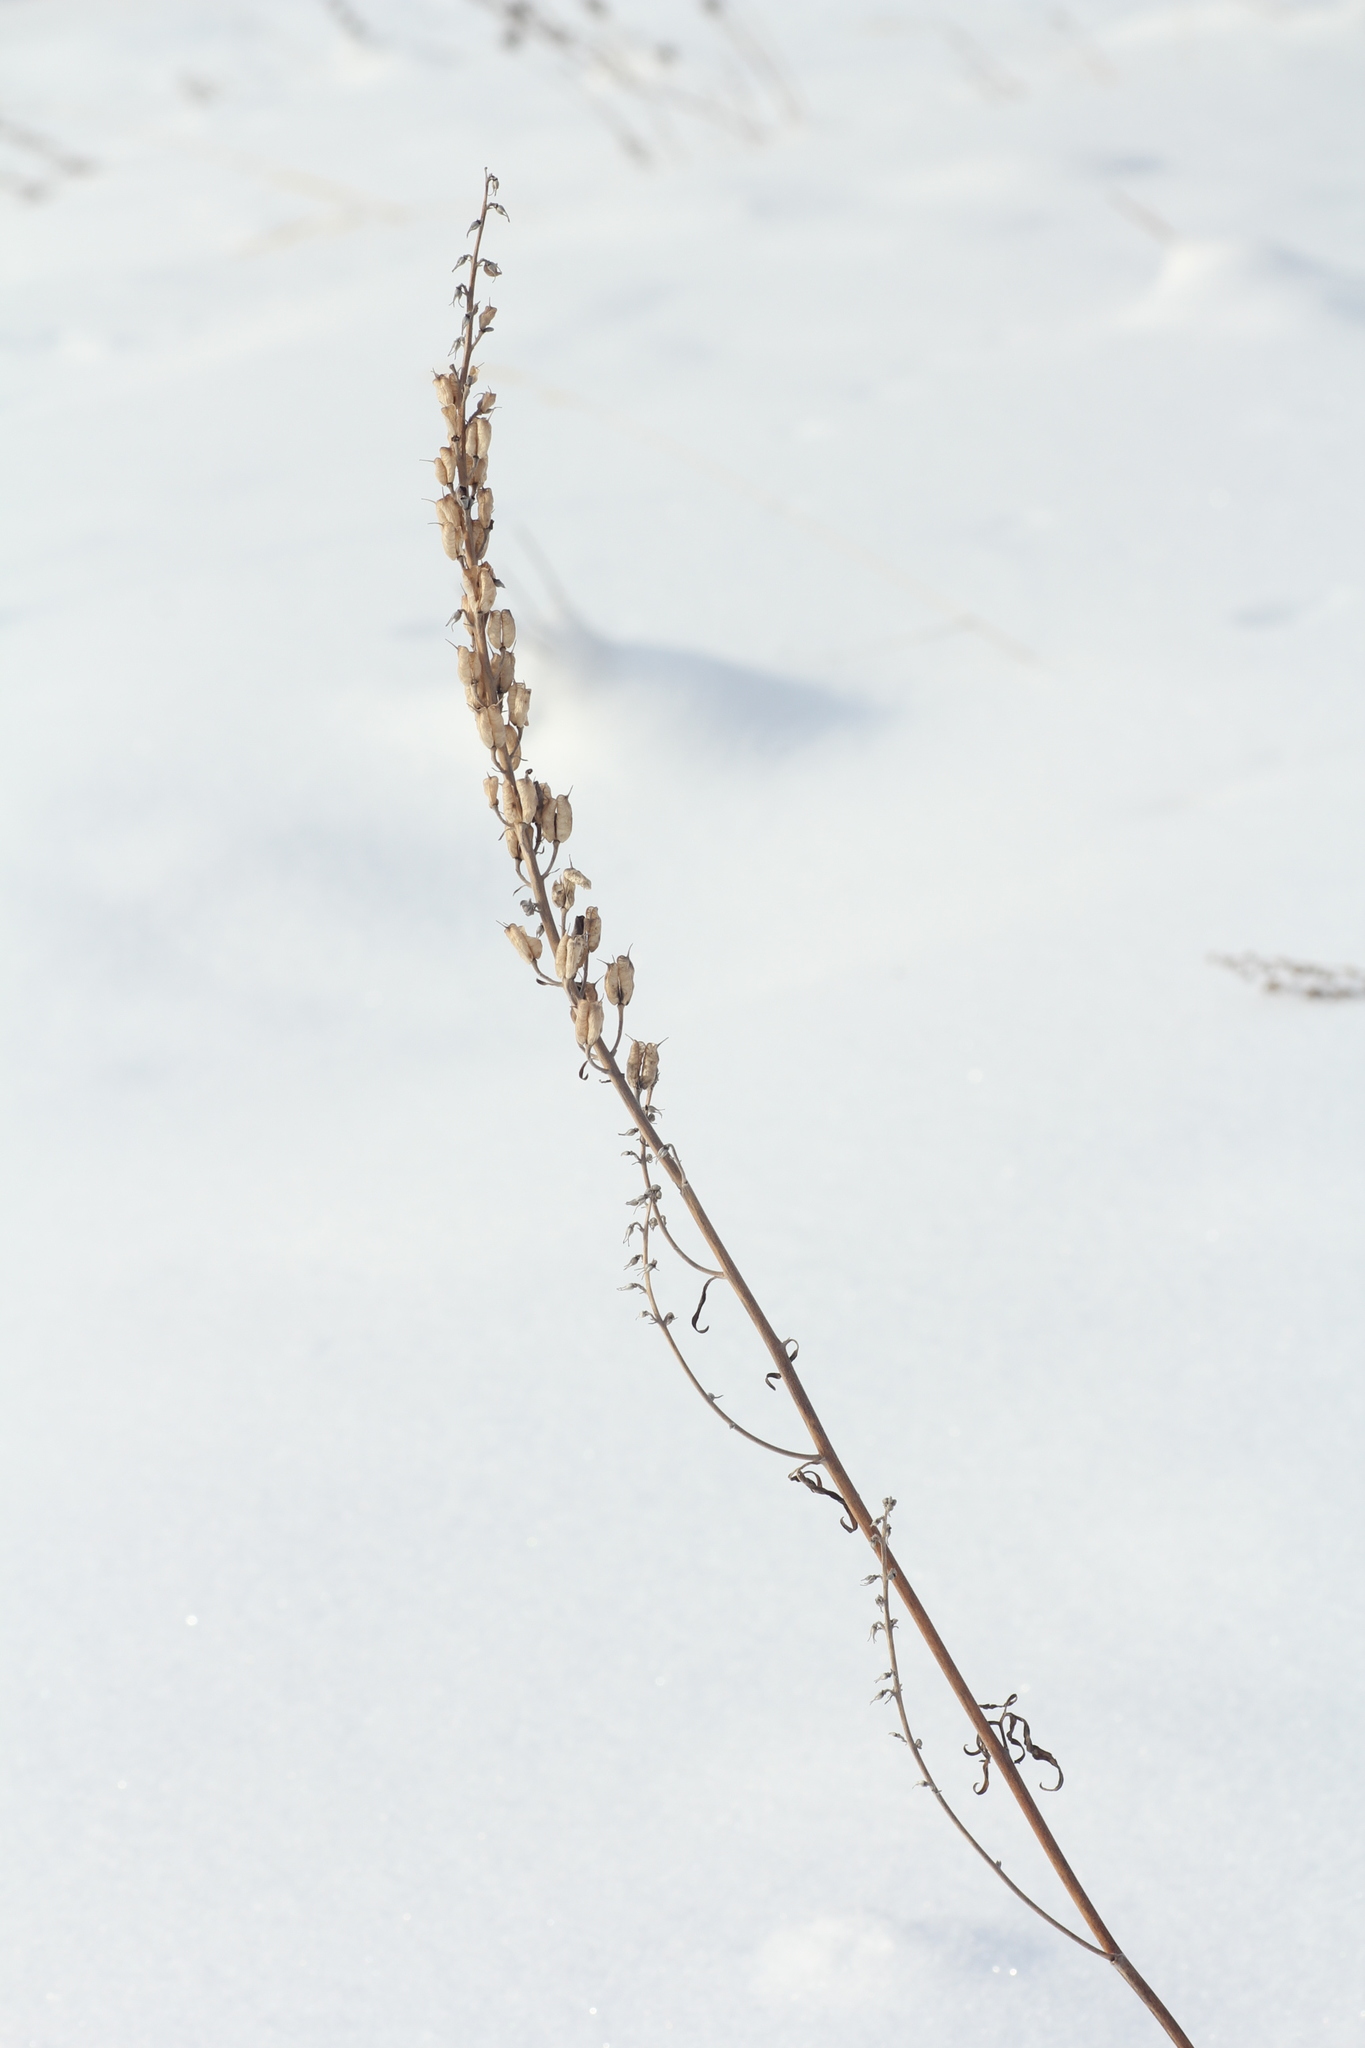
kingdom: Plantae
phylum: Tracheophyta
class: Magnoliopsida
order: Ranunculales
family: Ranunculaceae
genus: Aconitum
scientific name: Aconitum barbatum
